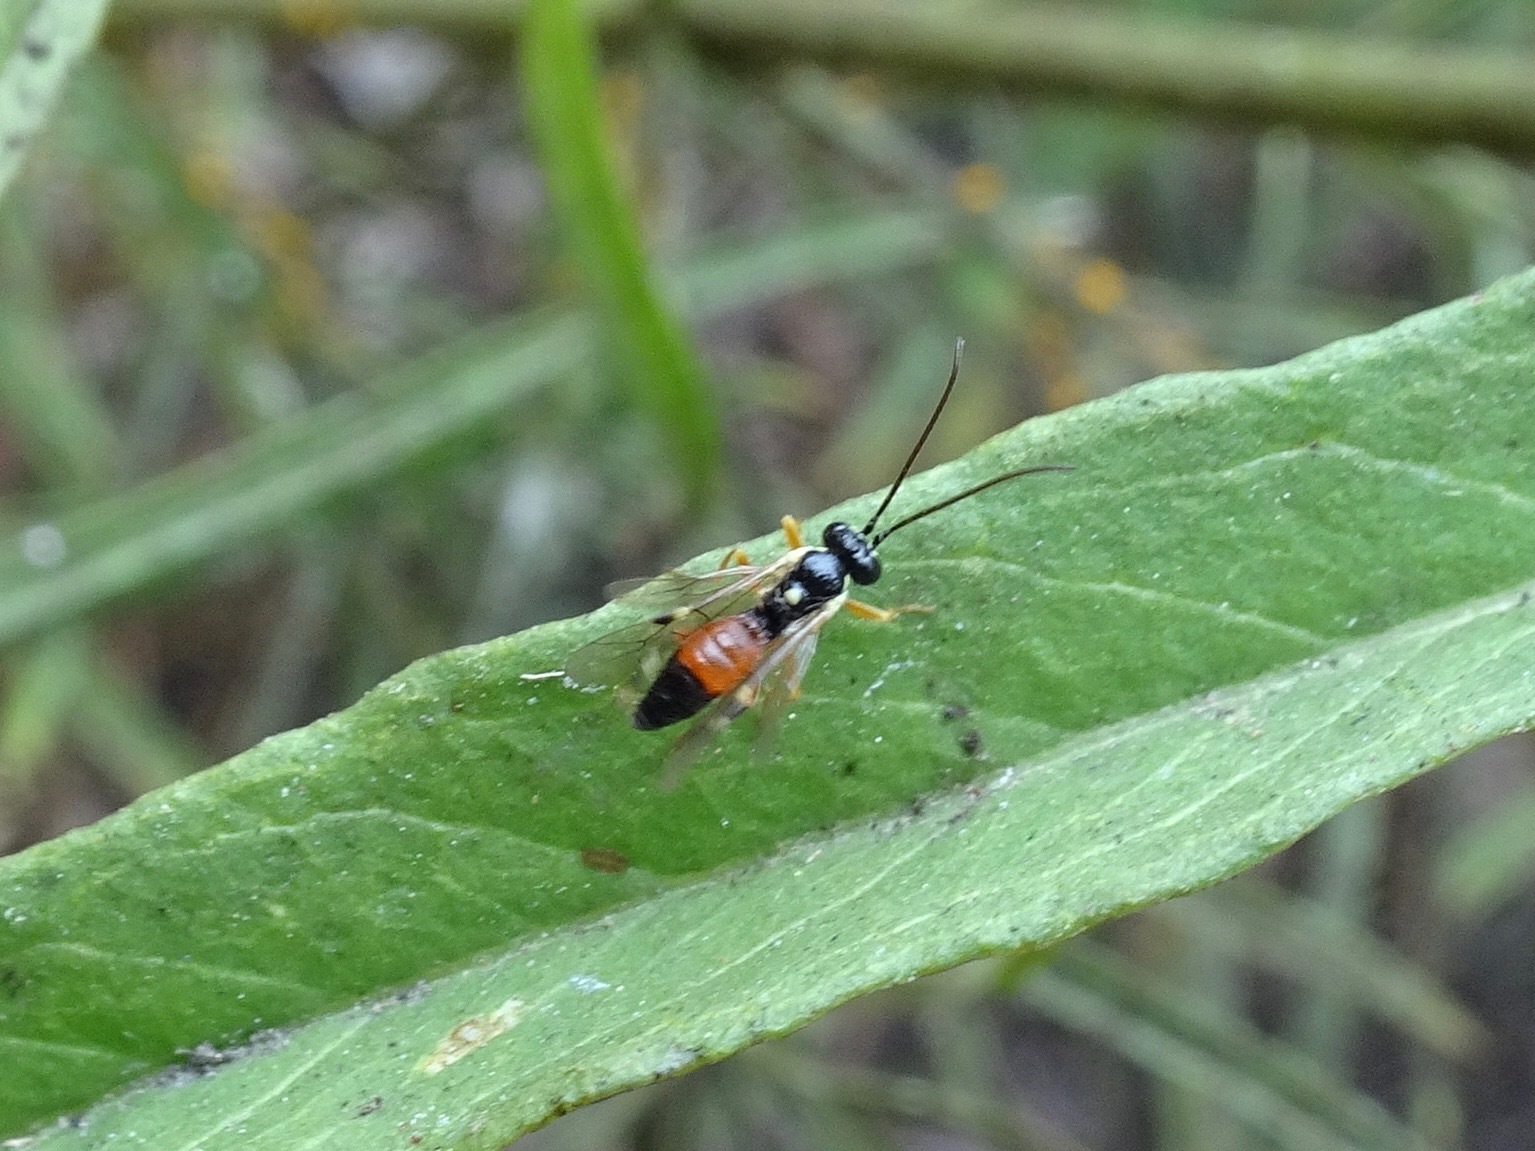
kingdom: Animalia
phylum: Arthropoda
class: Insecta
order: Hymenoptera
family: Ichneumonidae
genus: Diplazon
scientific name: Diplazon laetatorius
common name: Parasitoid wasp
